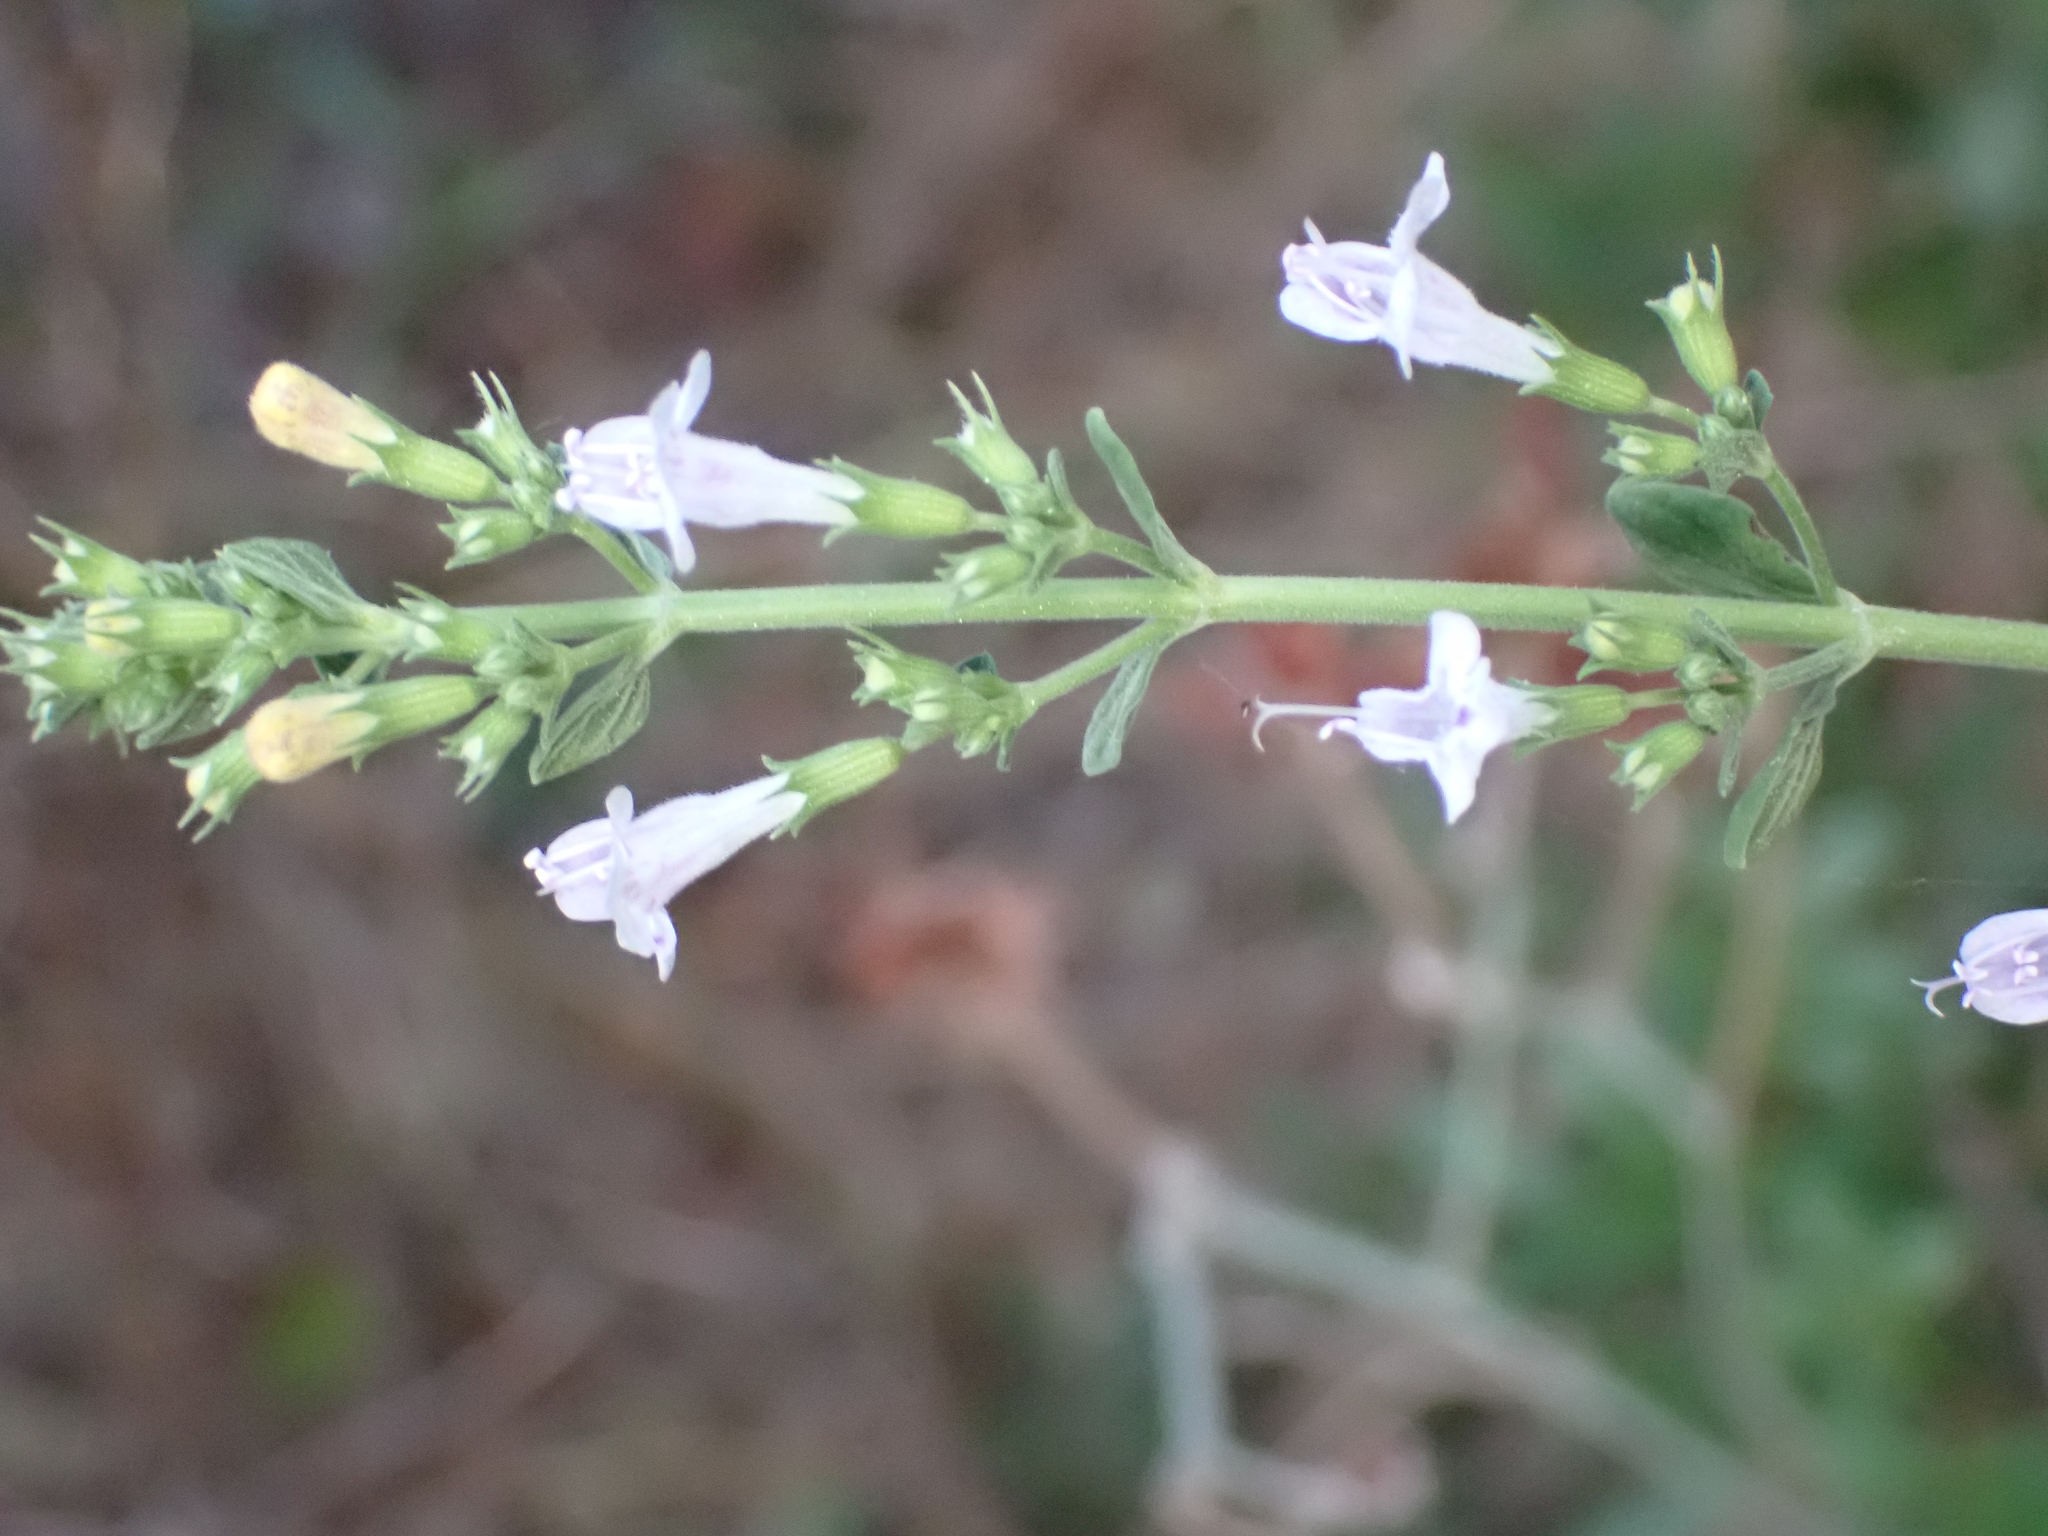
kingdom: Plantae
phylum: Tracheophyta
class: Magnoliopsida
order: Lamiales
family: Lamiaceae
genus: Clinopodium
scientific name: Clinopodium nepeta
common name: Lesser calamint
